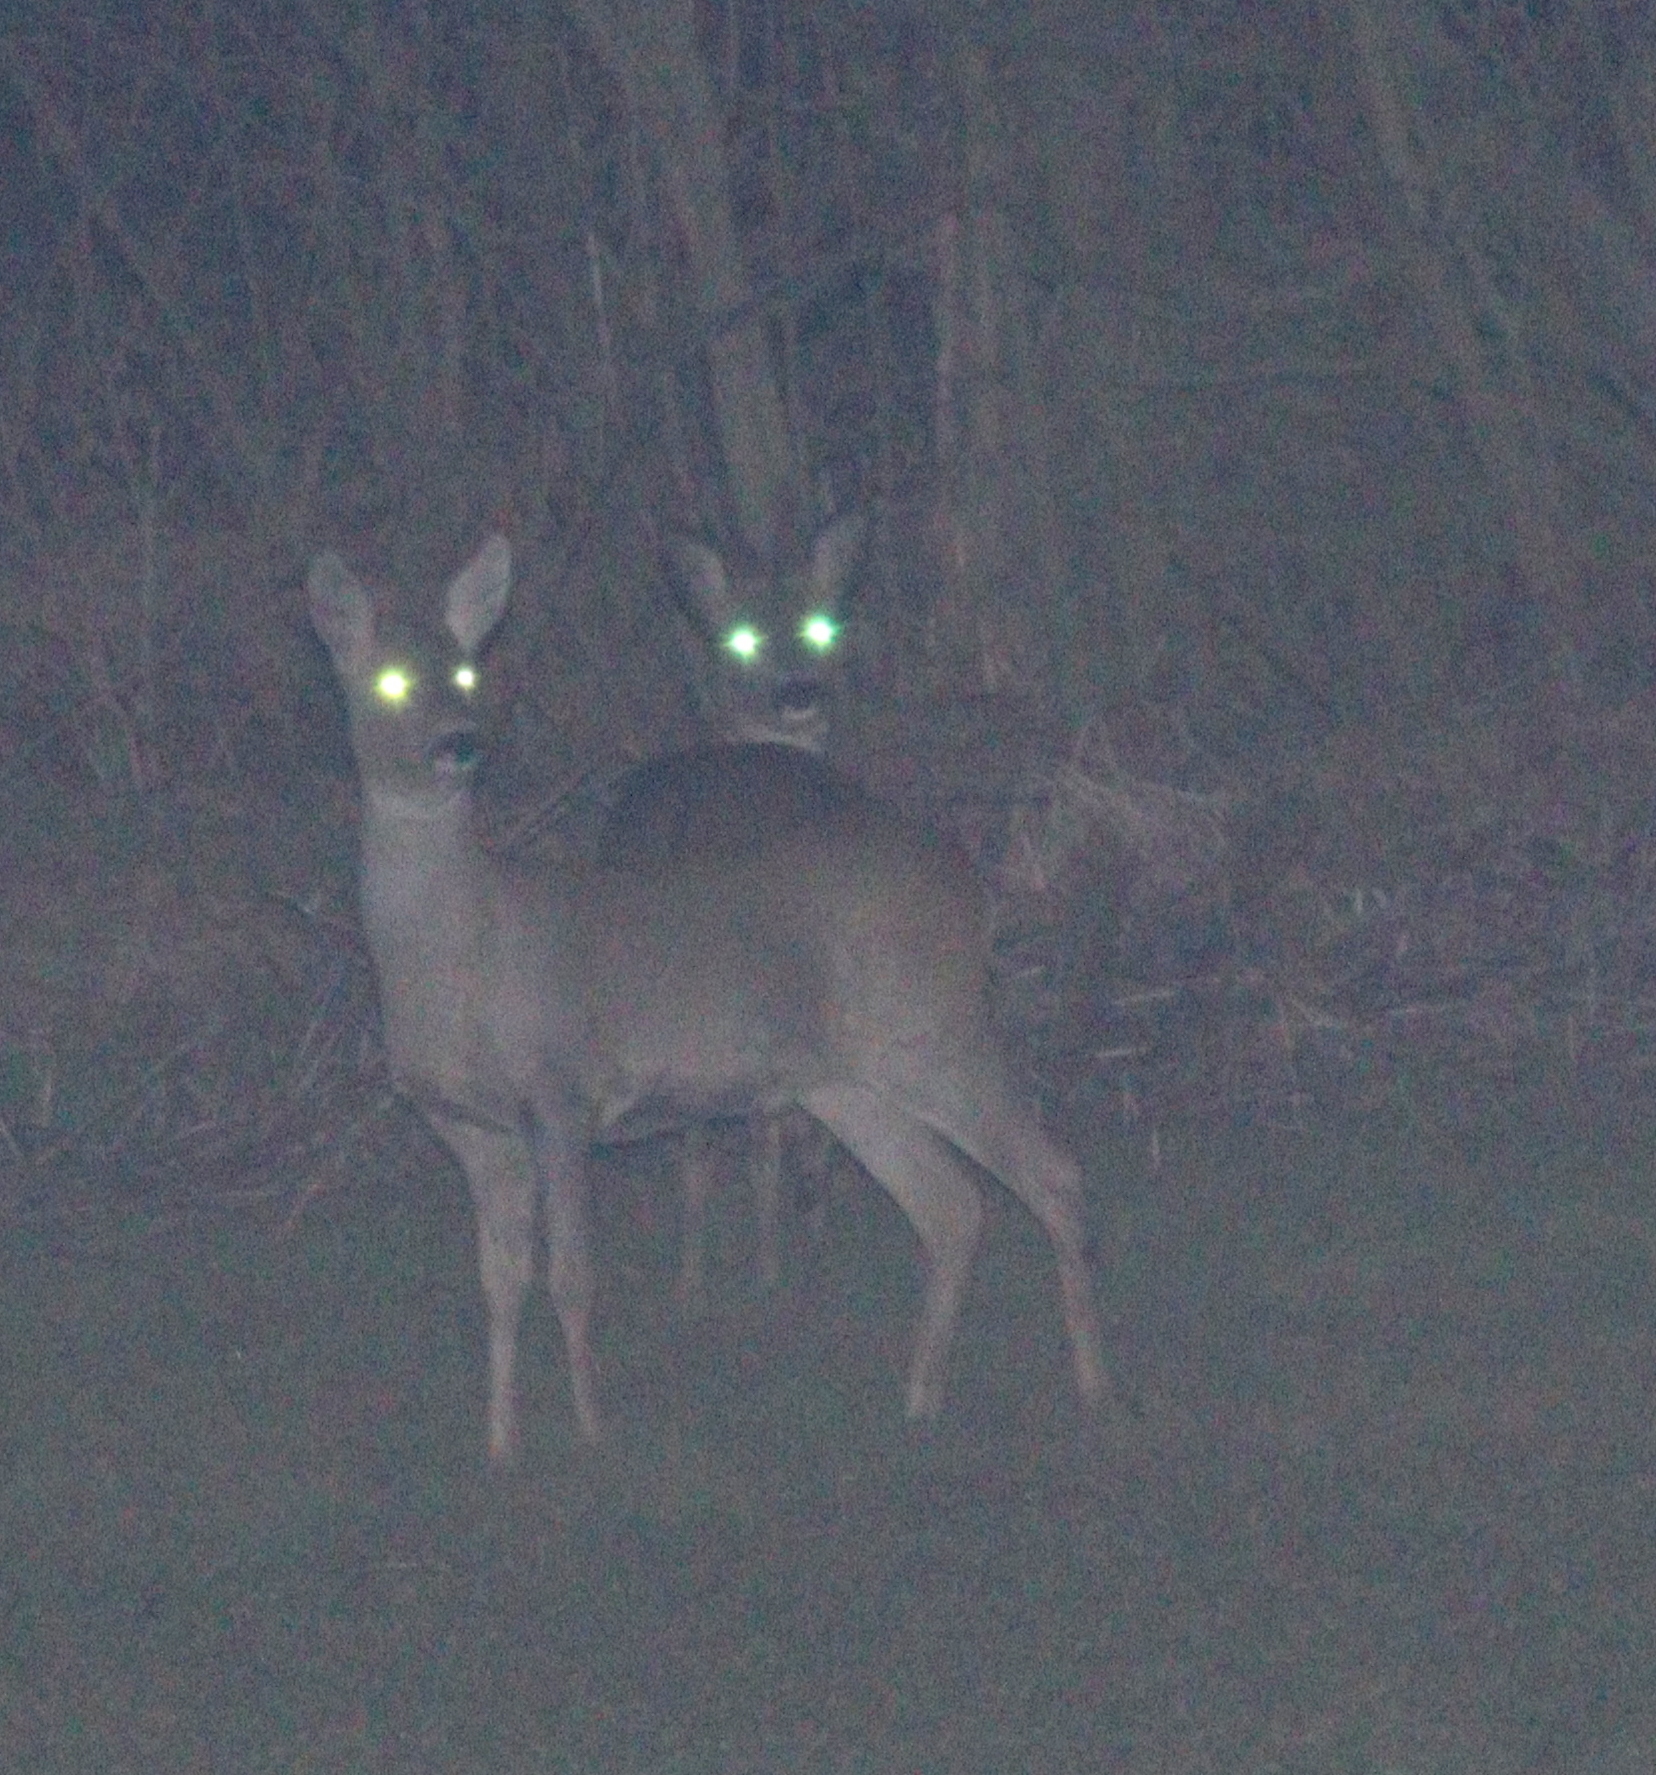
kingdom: Animalia
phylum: Chordata
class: Mammalia
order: Artiodactyla
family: Cervidae
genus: Capreolus
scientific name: Capreolus capreolus
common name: Western roe deer
